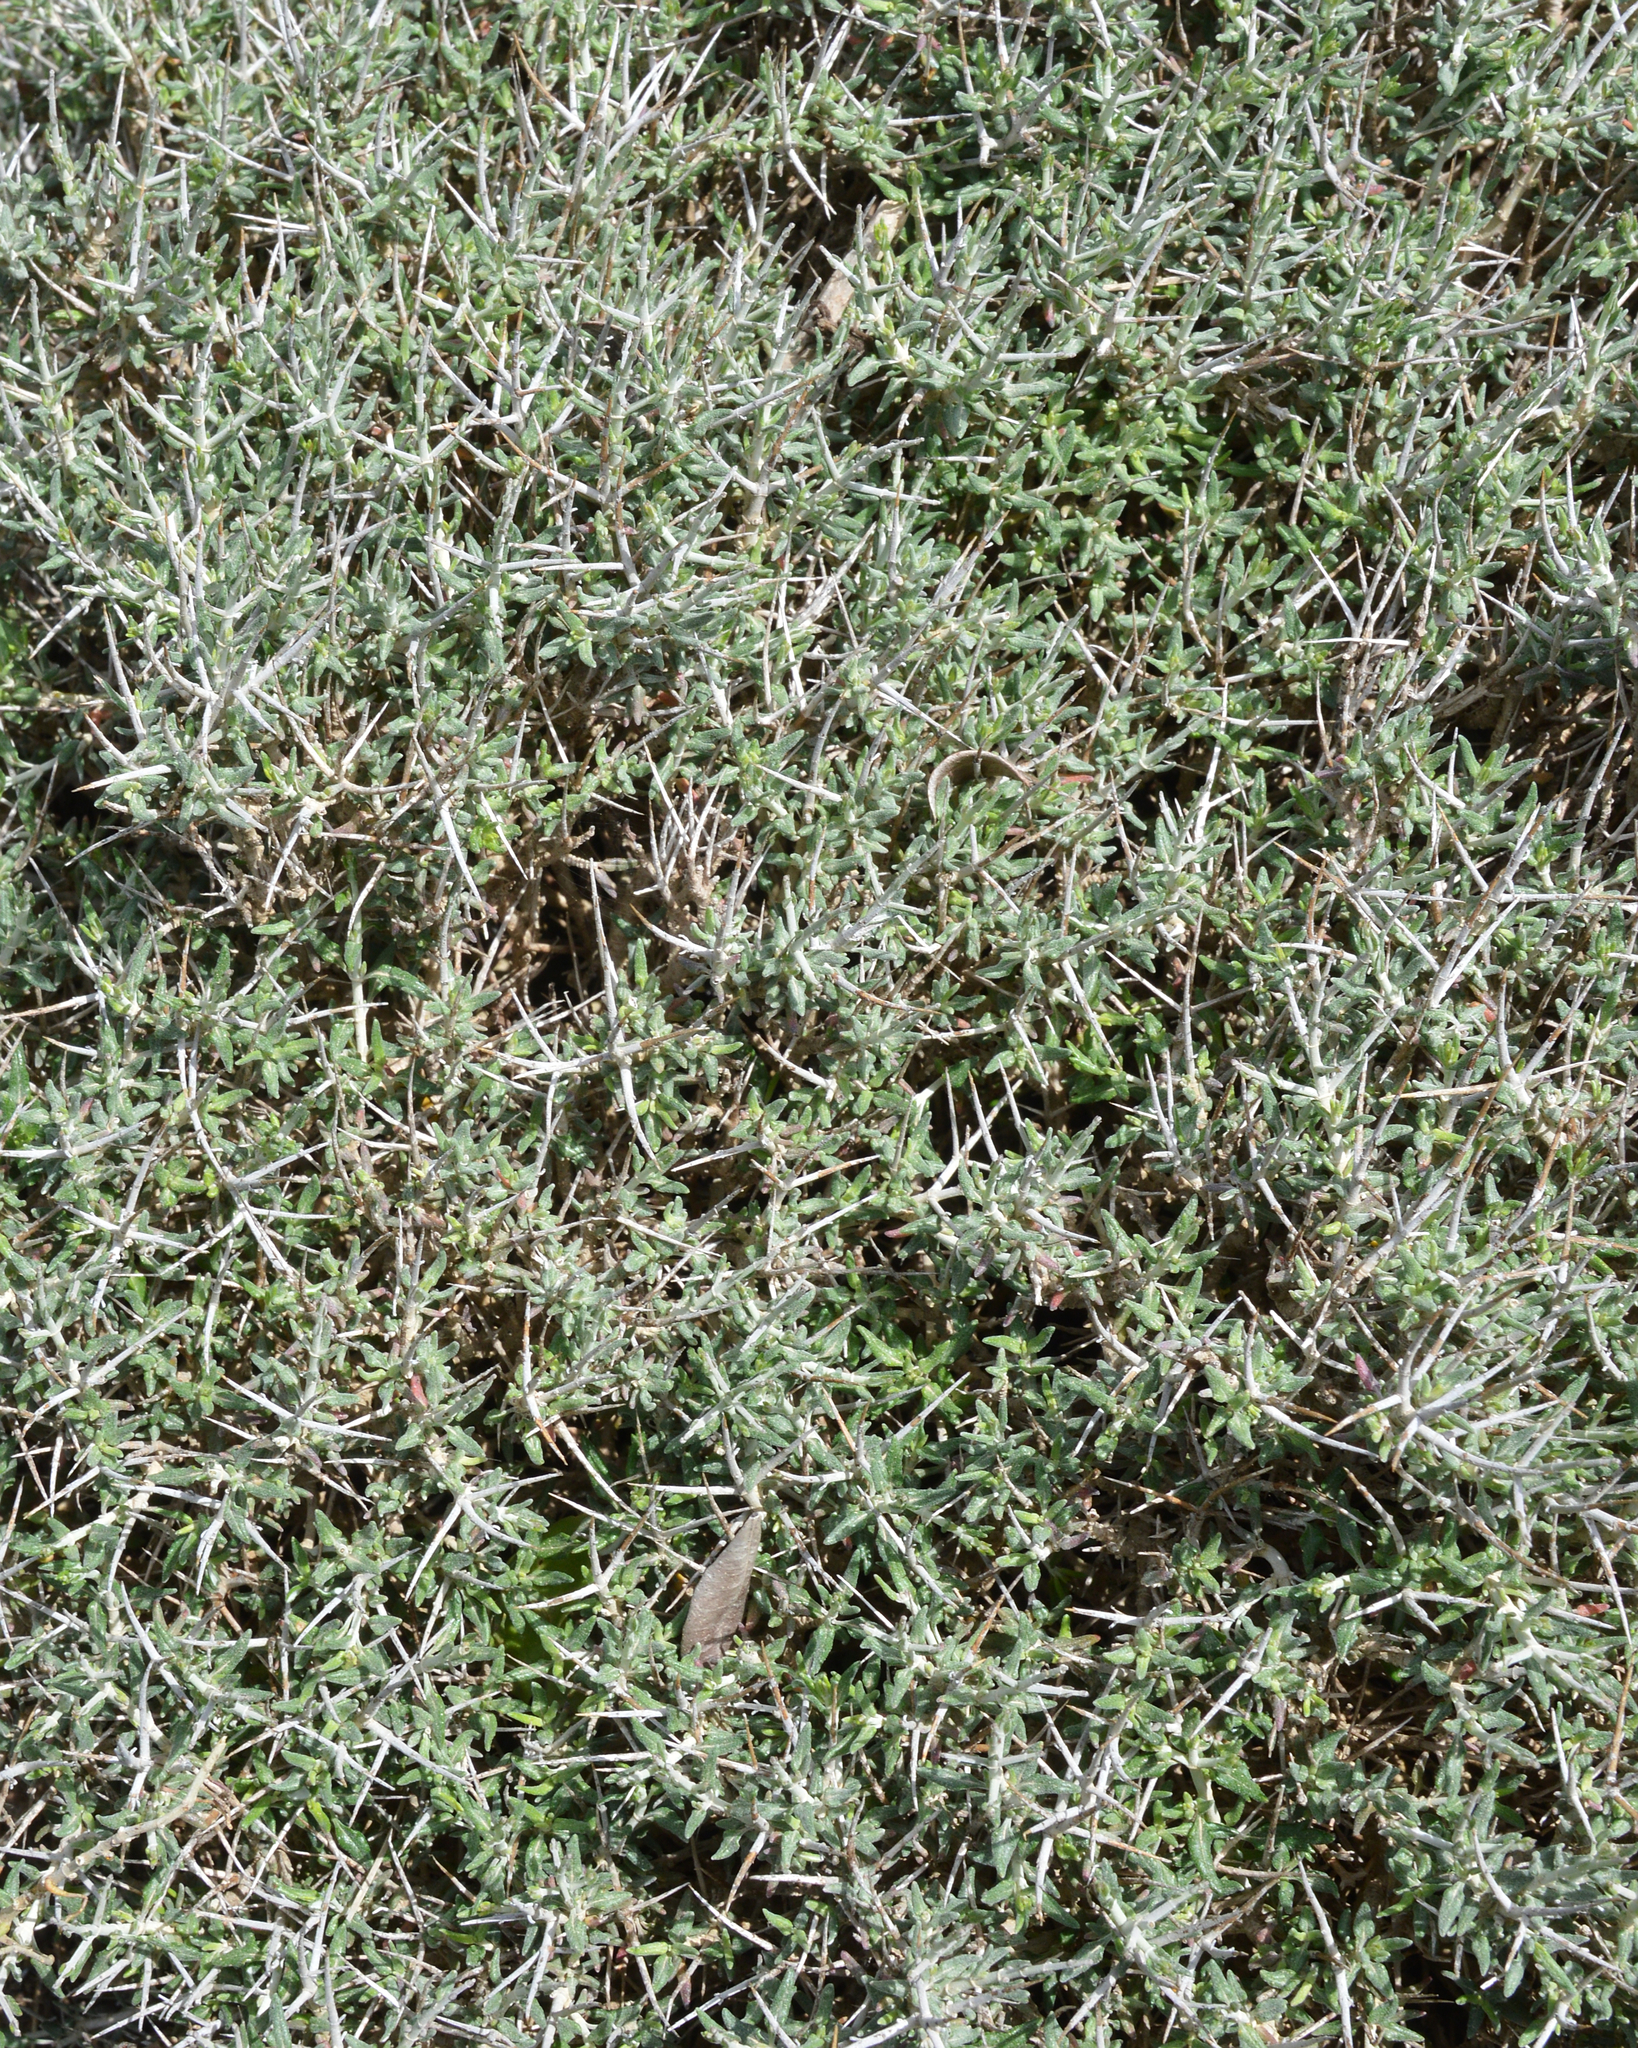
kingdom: Plantae
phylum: Tracheophyta
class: Magnoliopsida
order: Lamiales
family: Lamiaceae
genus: Teucrium
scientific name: Teucrium balearicum
